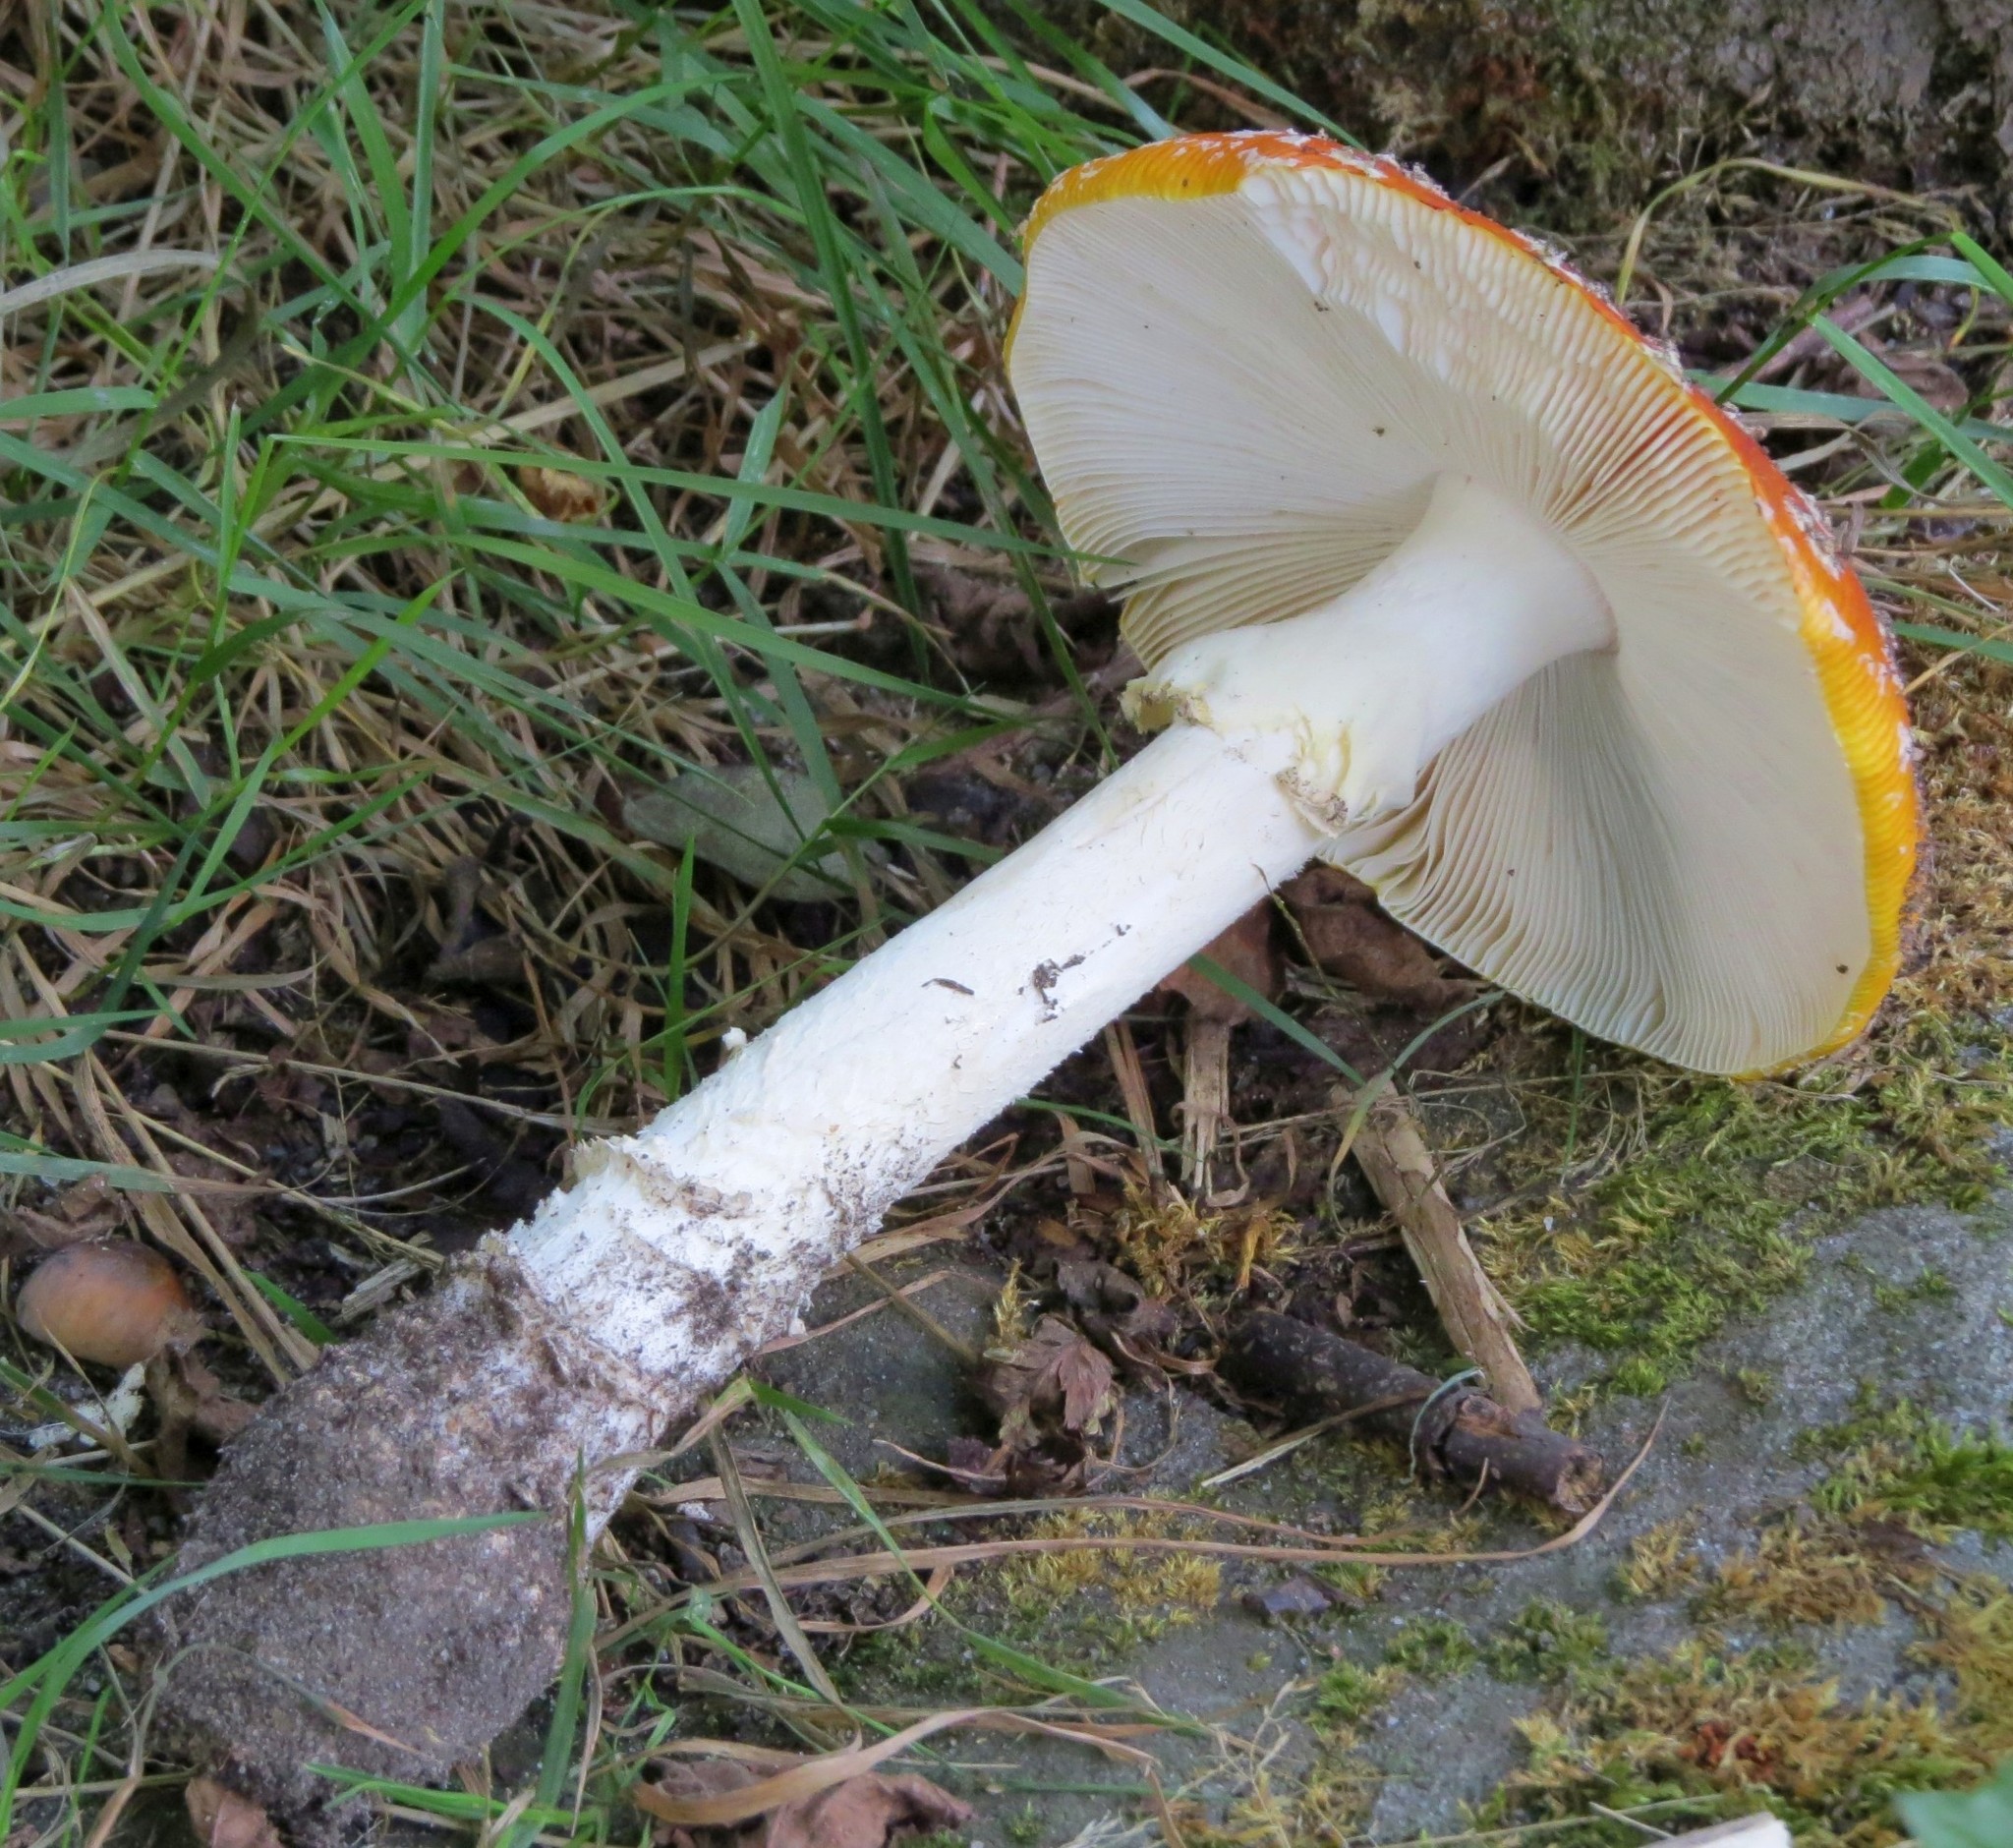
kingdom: Fungi
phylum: Basidiomycota
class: Agaricomycetes
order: Agaricales
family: Amanitaceae
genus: Amanita
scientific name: Amanita muscaria
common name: Fly agaric
